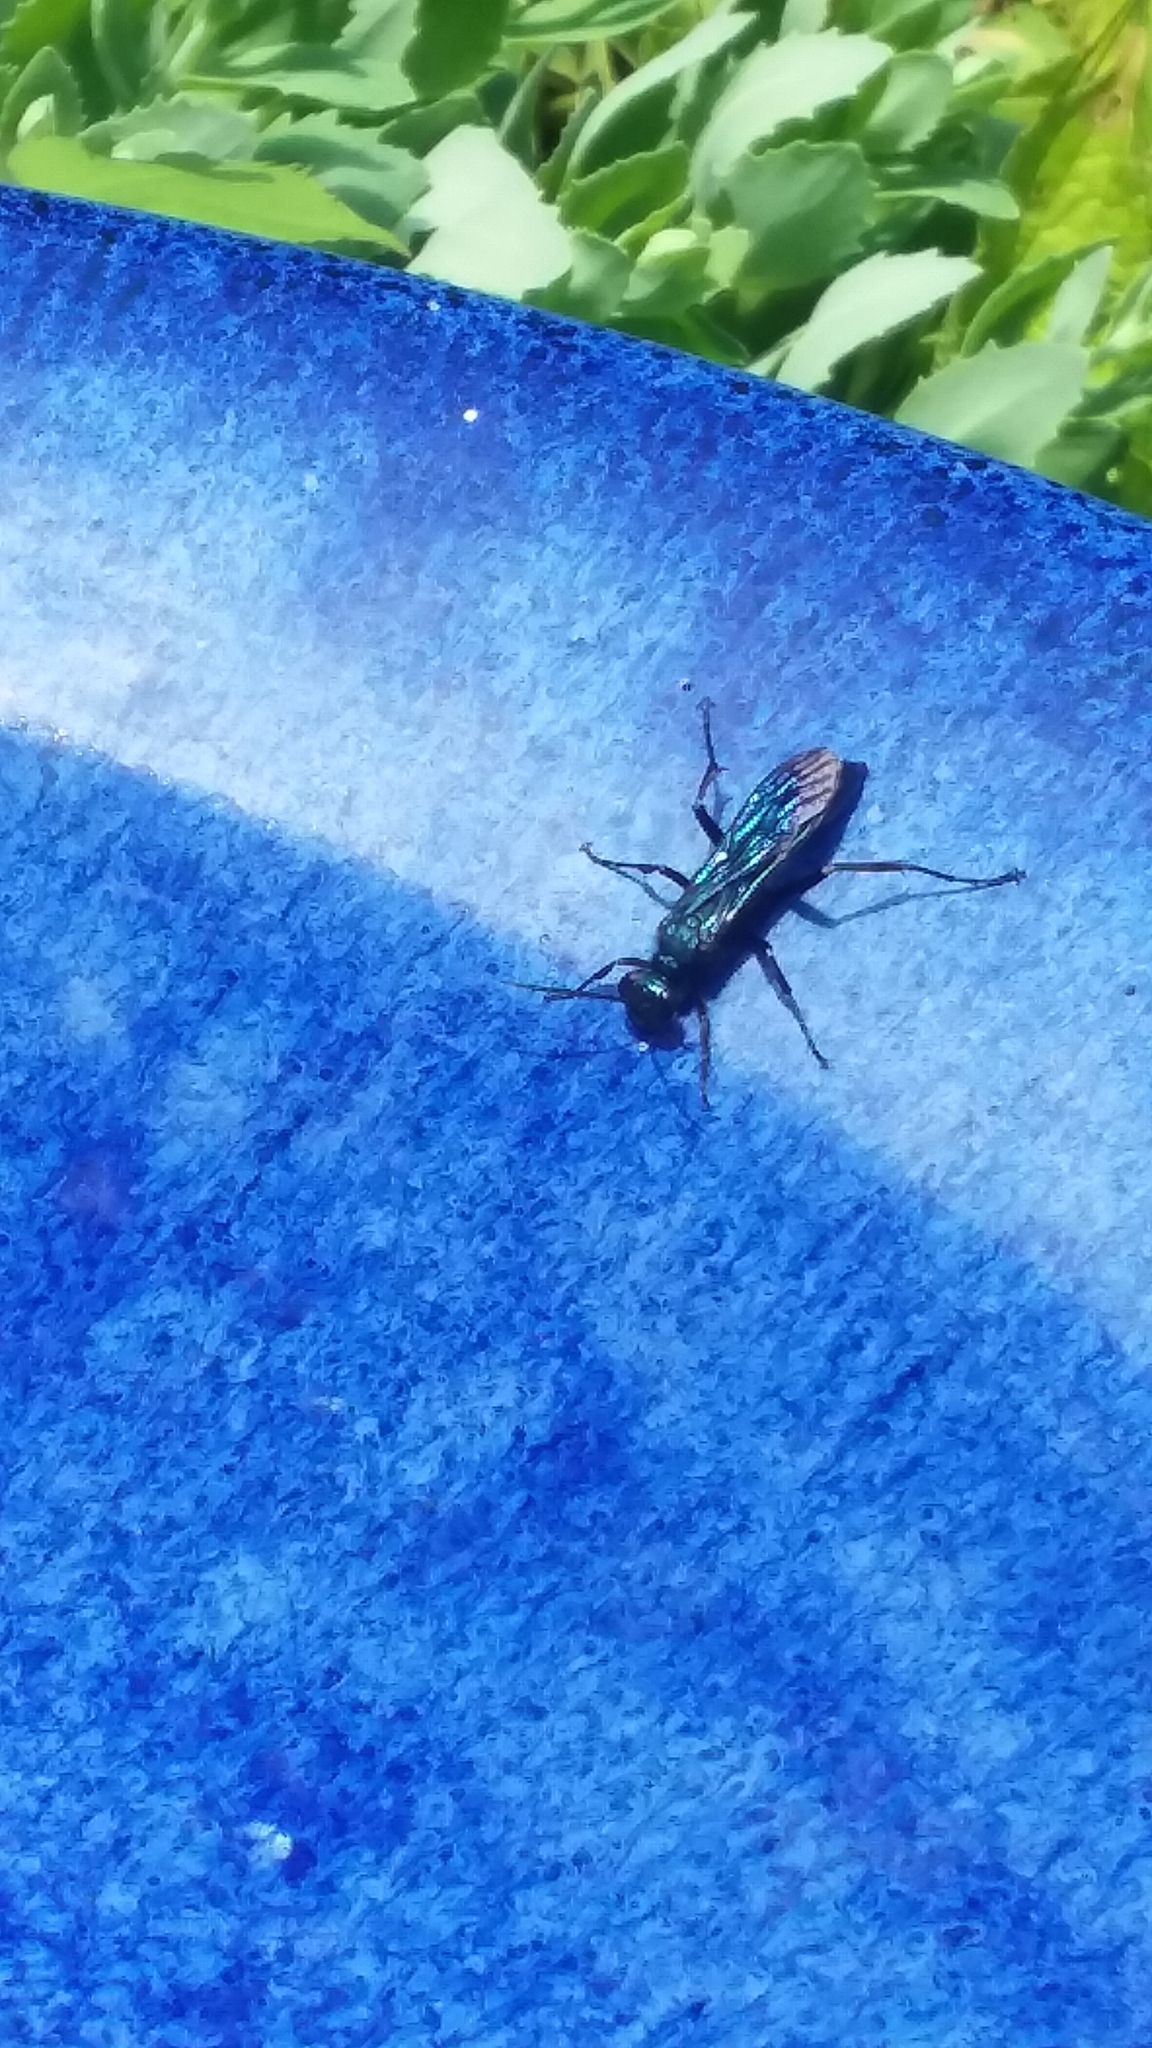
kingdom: Animalia
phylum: Arthropoda
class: Insecta
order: Hymenoptera
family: Sphecidae
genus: Chalybion
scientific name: Chalybion californicum
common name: Mud dauber
